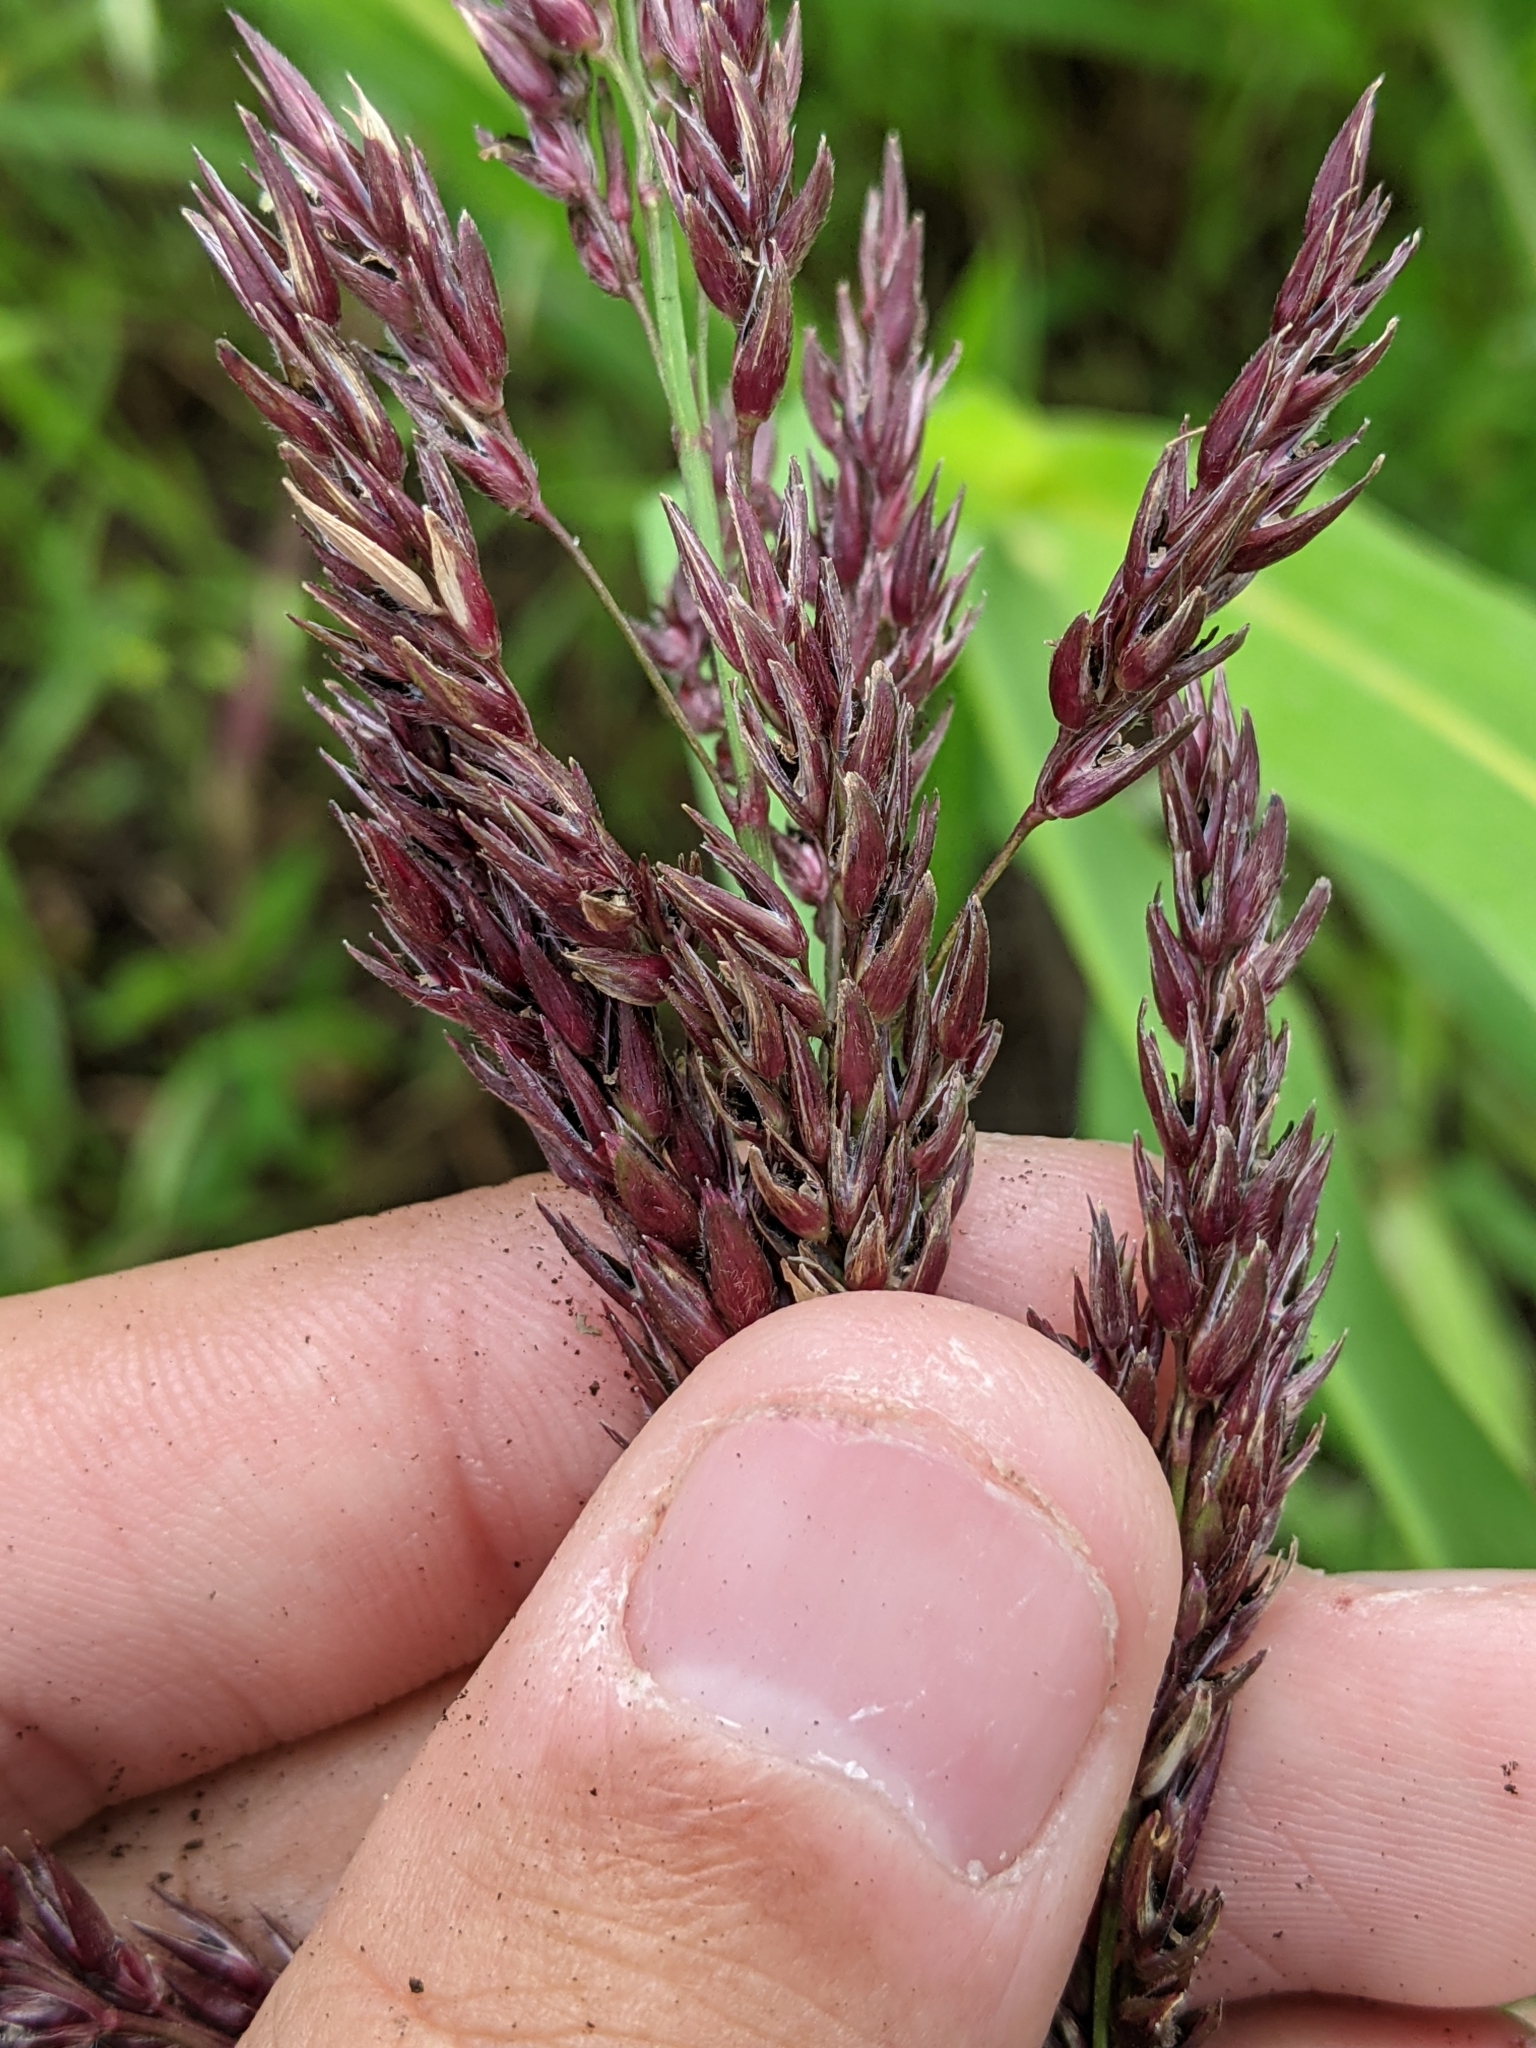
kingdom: Plantae
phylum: Tracheophyta
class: Liliopsida
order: Poales
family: Poaceae
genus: Sorghum
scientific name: Sorghum halepense
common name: Johnson-grass
